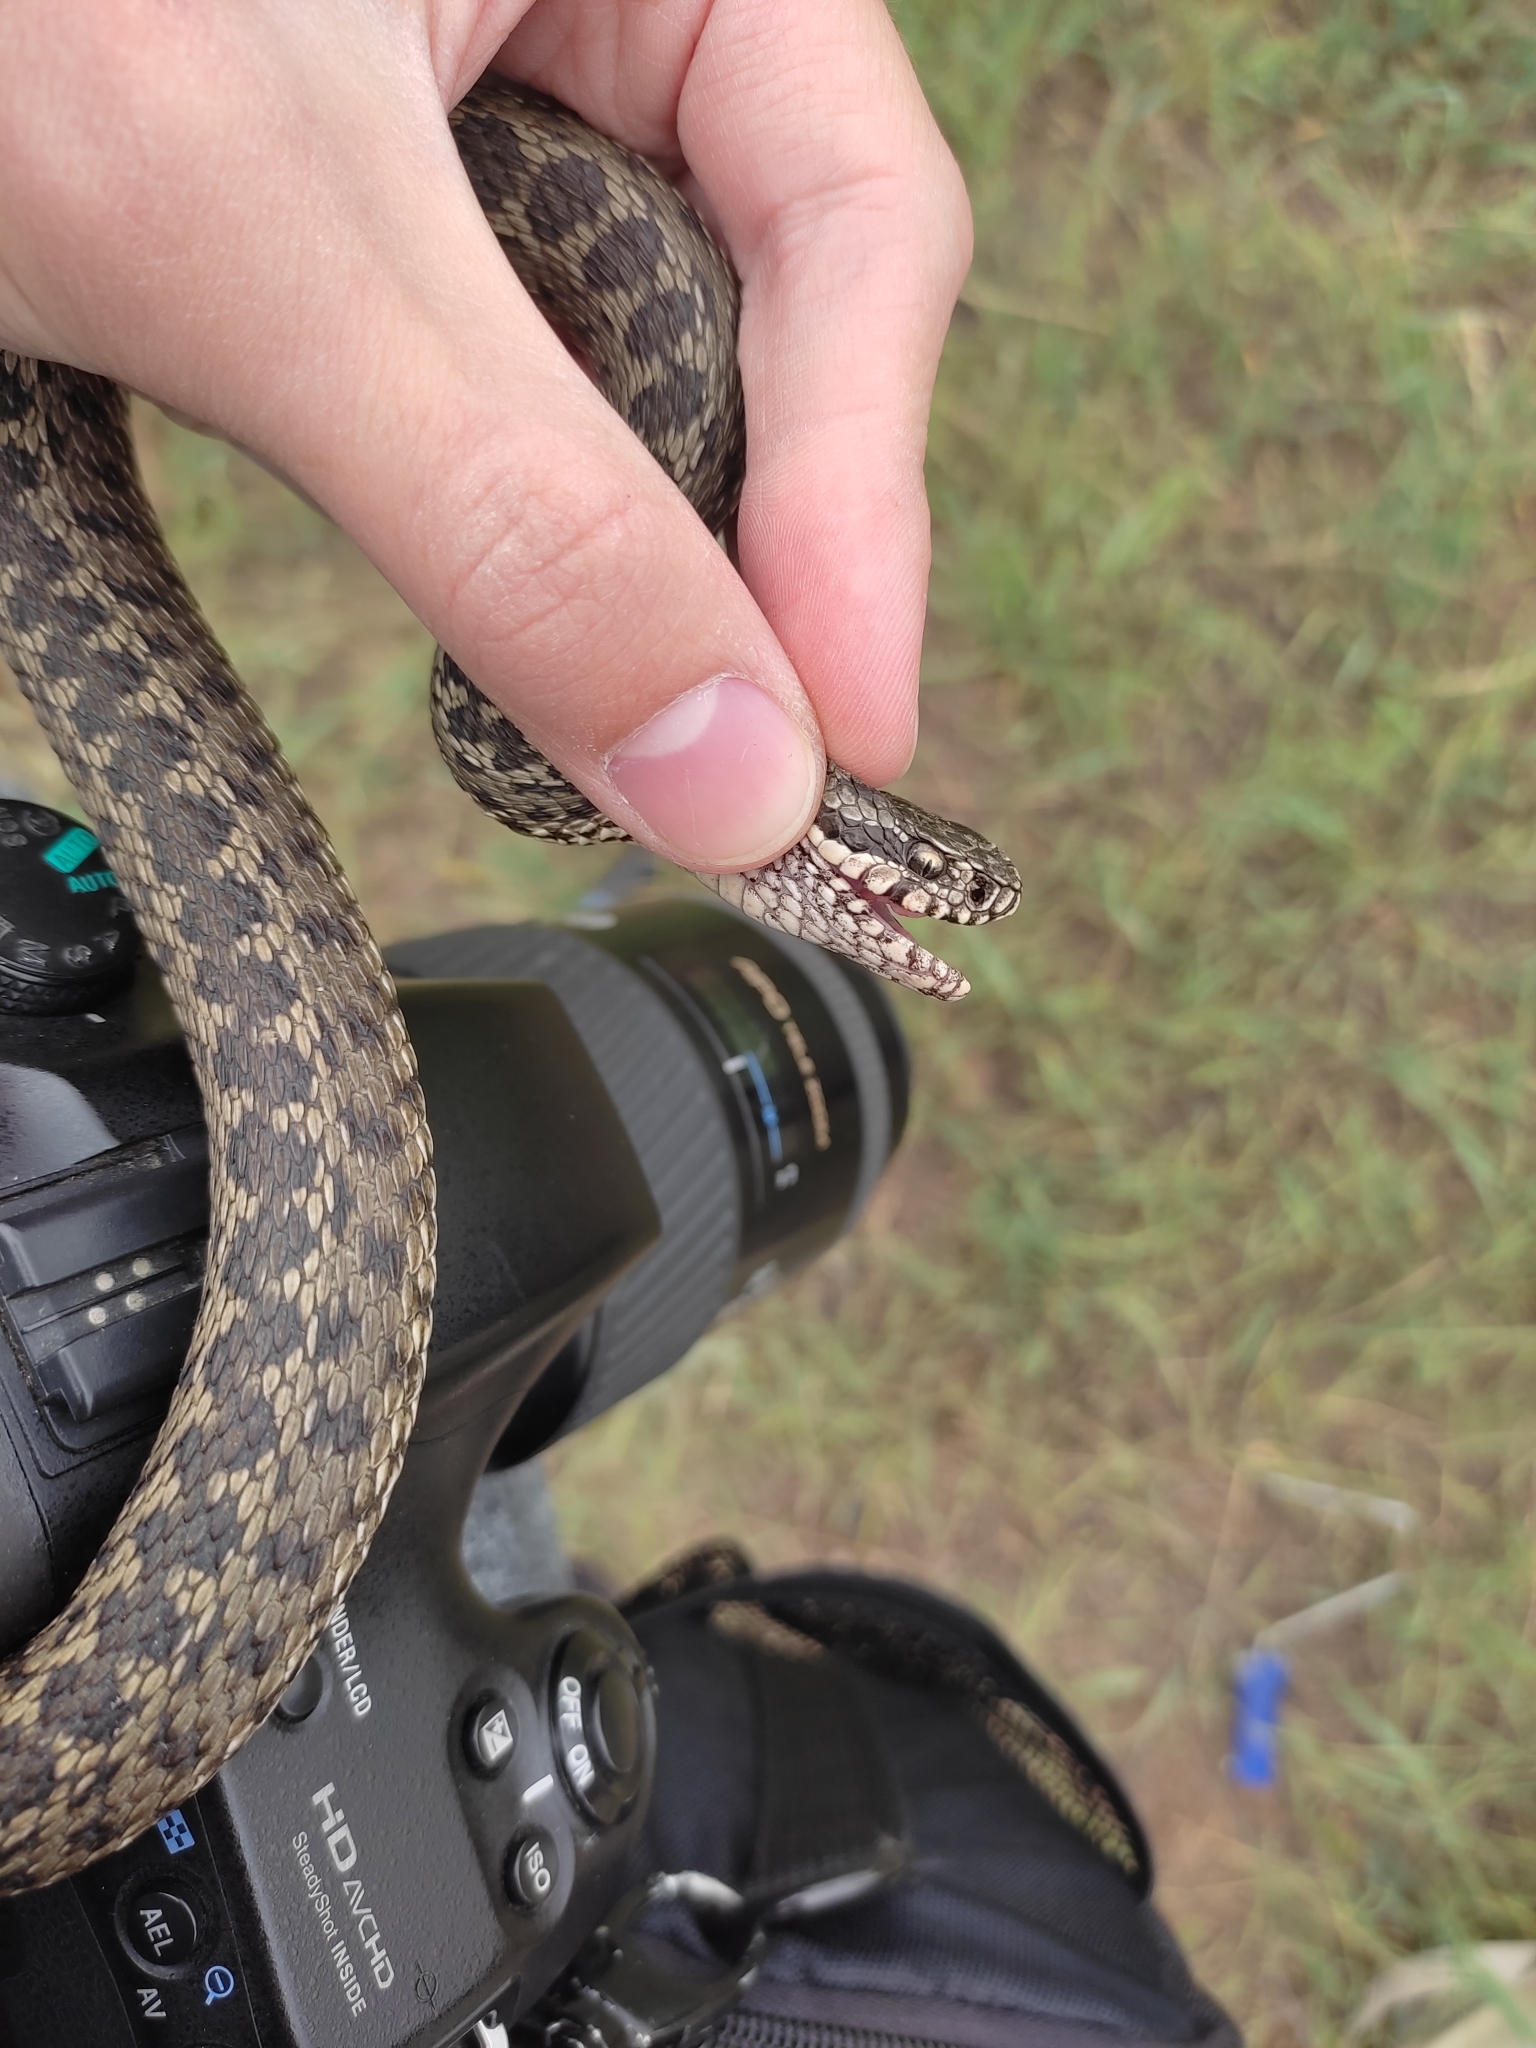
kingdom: Animalia
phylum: Chordata
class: Squamata
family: Viperidae
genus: Vipera
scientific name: Vipera renardi
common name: Eastern steppe viper
